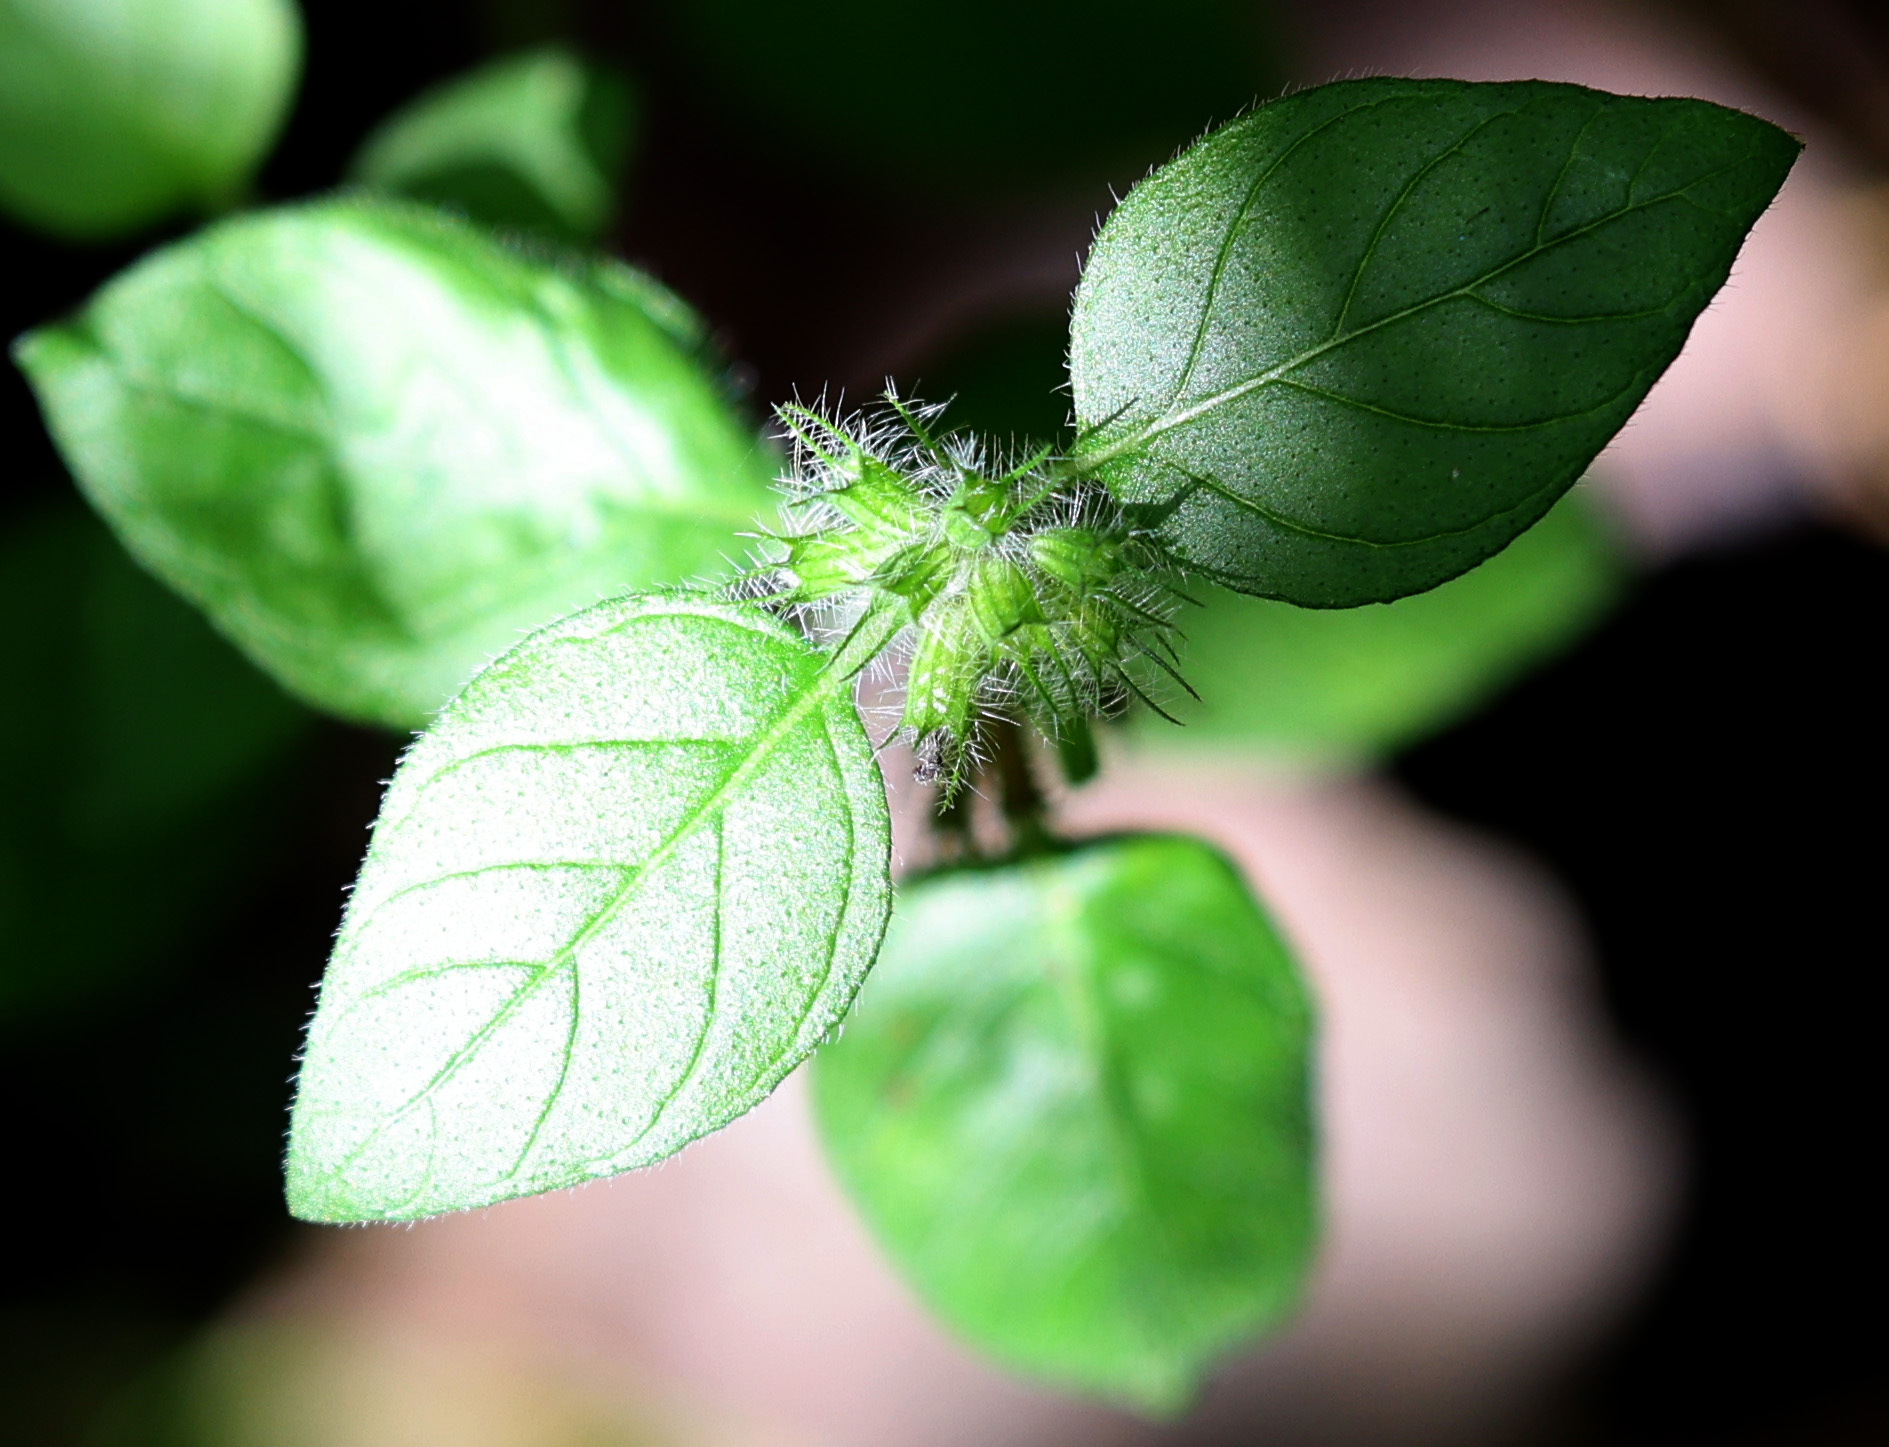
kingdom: Plantae
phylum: Tracheophyta
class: Magnoliopsida
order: Lamiales
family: Lamiaceae
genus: Clinopodium
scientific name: Clinopodium vulgare
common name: Wild basil
